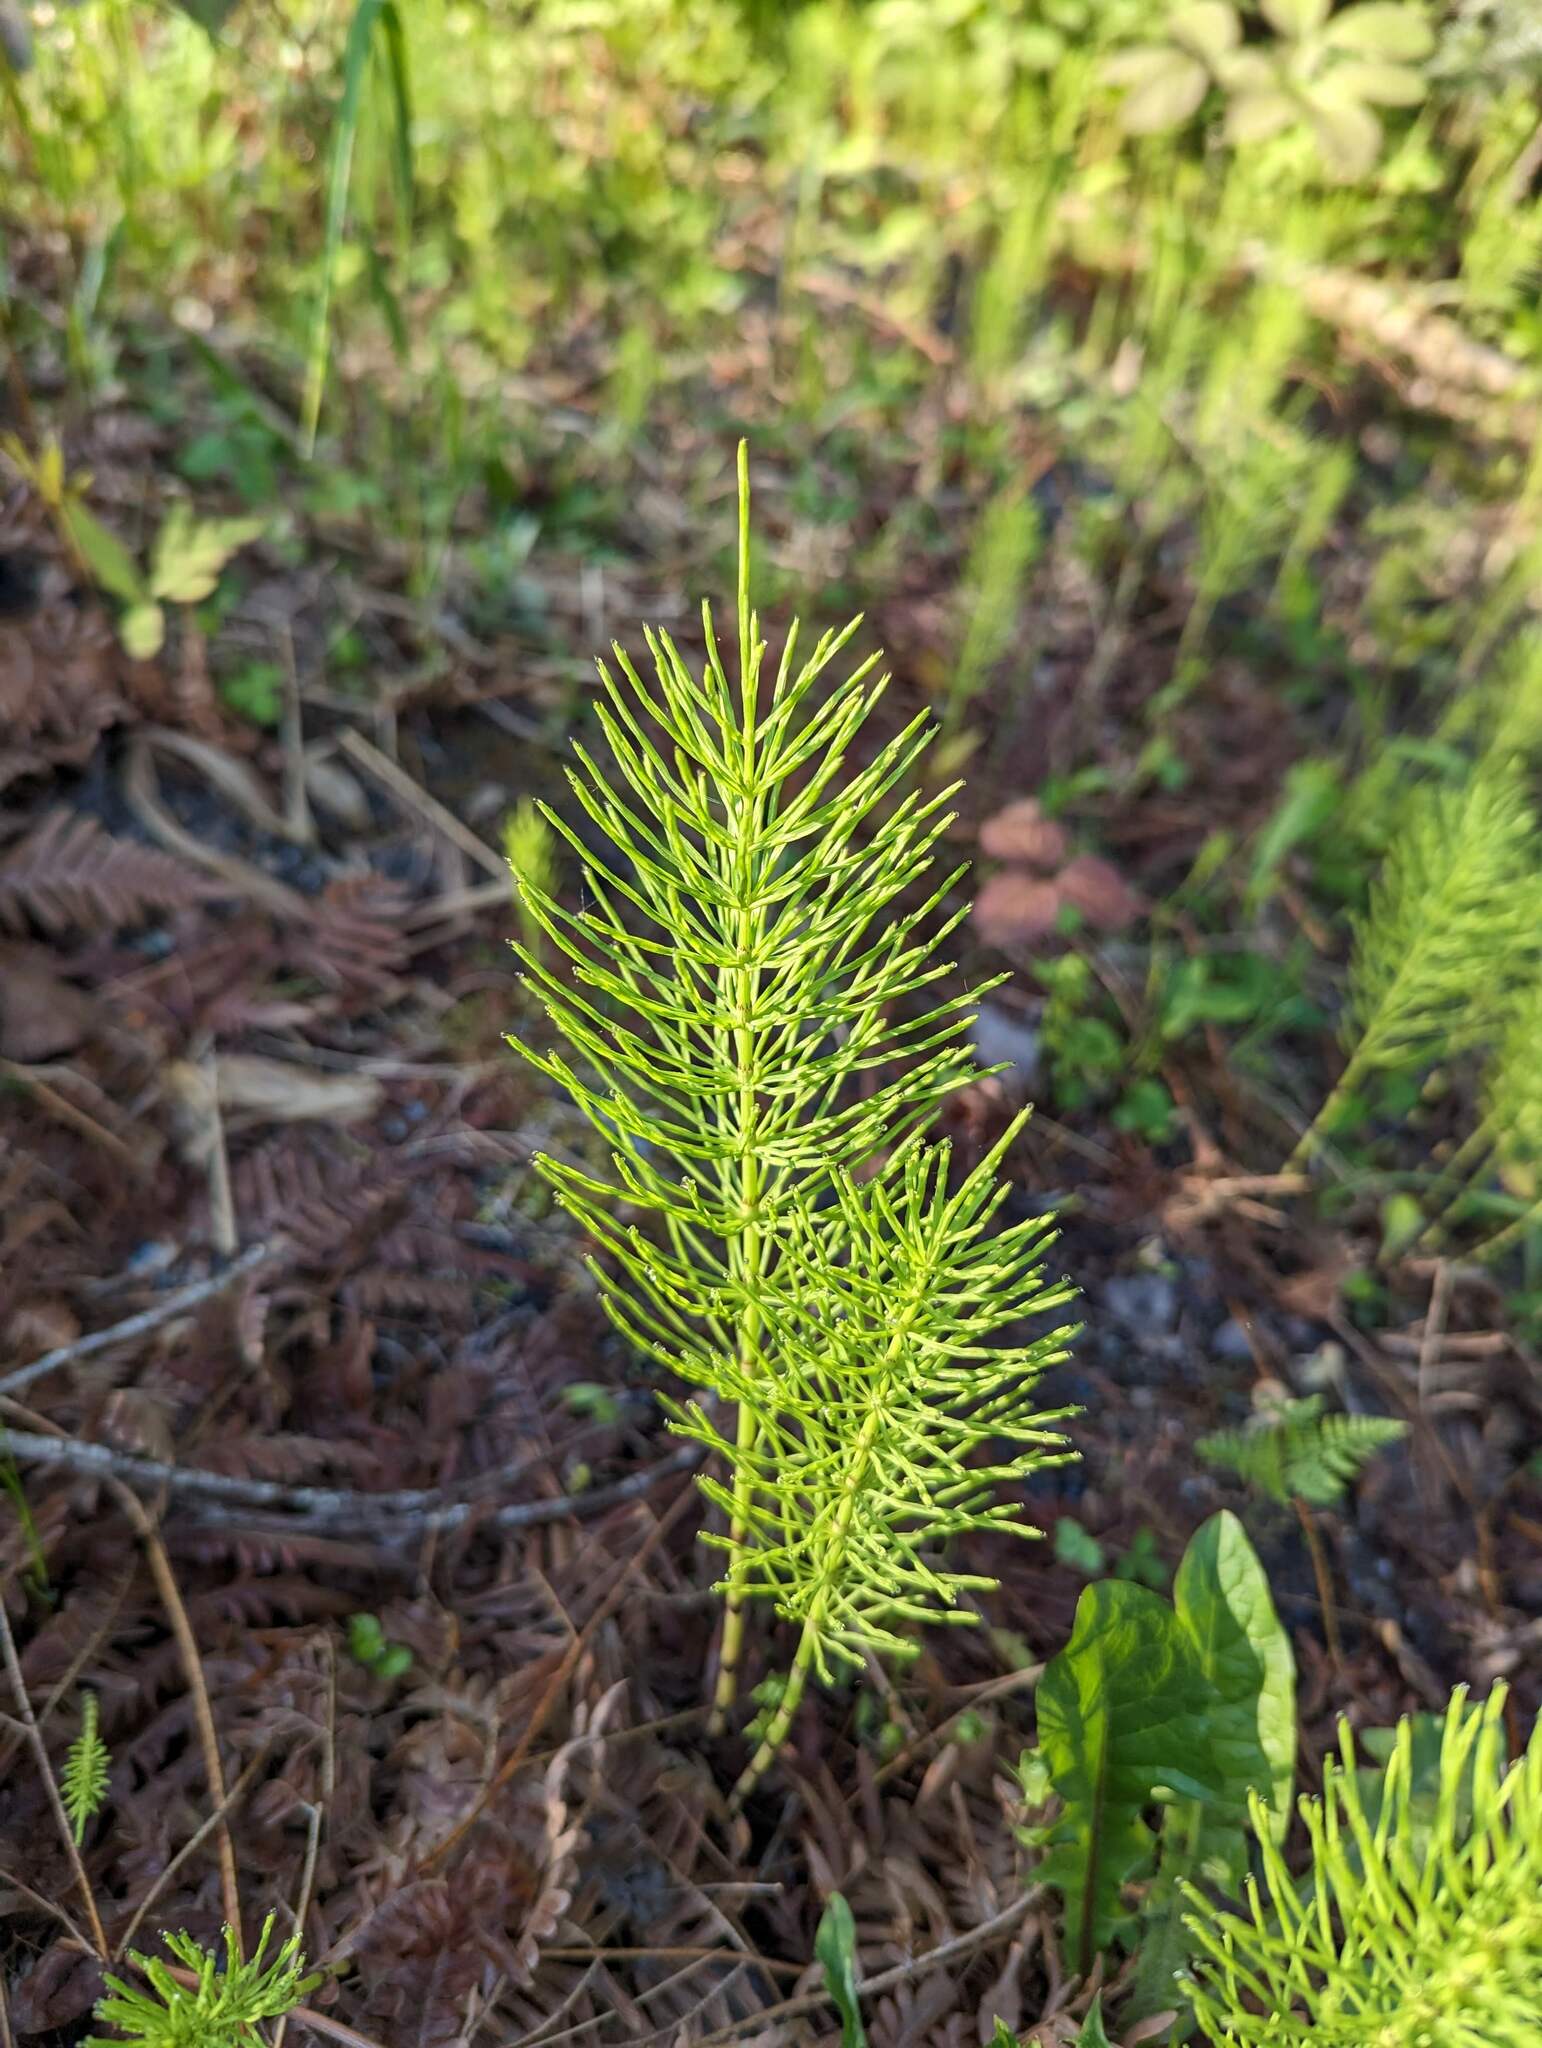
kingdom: Plantae
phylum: Tracheophyta
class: Polypodiopsida
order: Equisetales
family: Equisetaceae
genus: Equisetum
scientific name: Equisetum arvense
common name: Field horsetail
